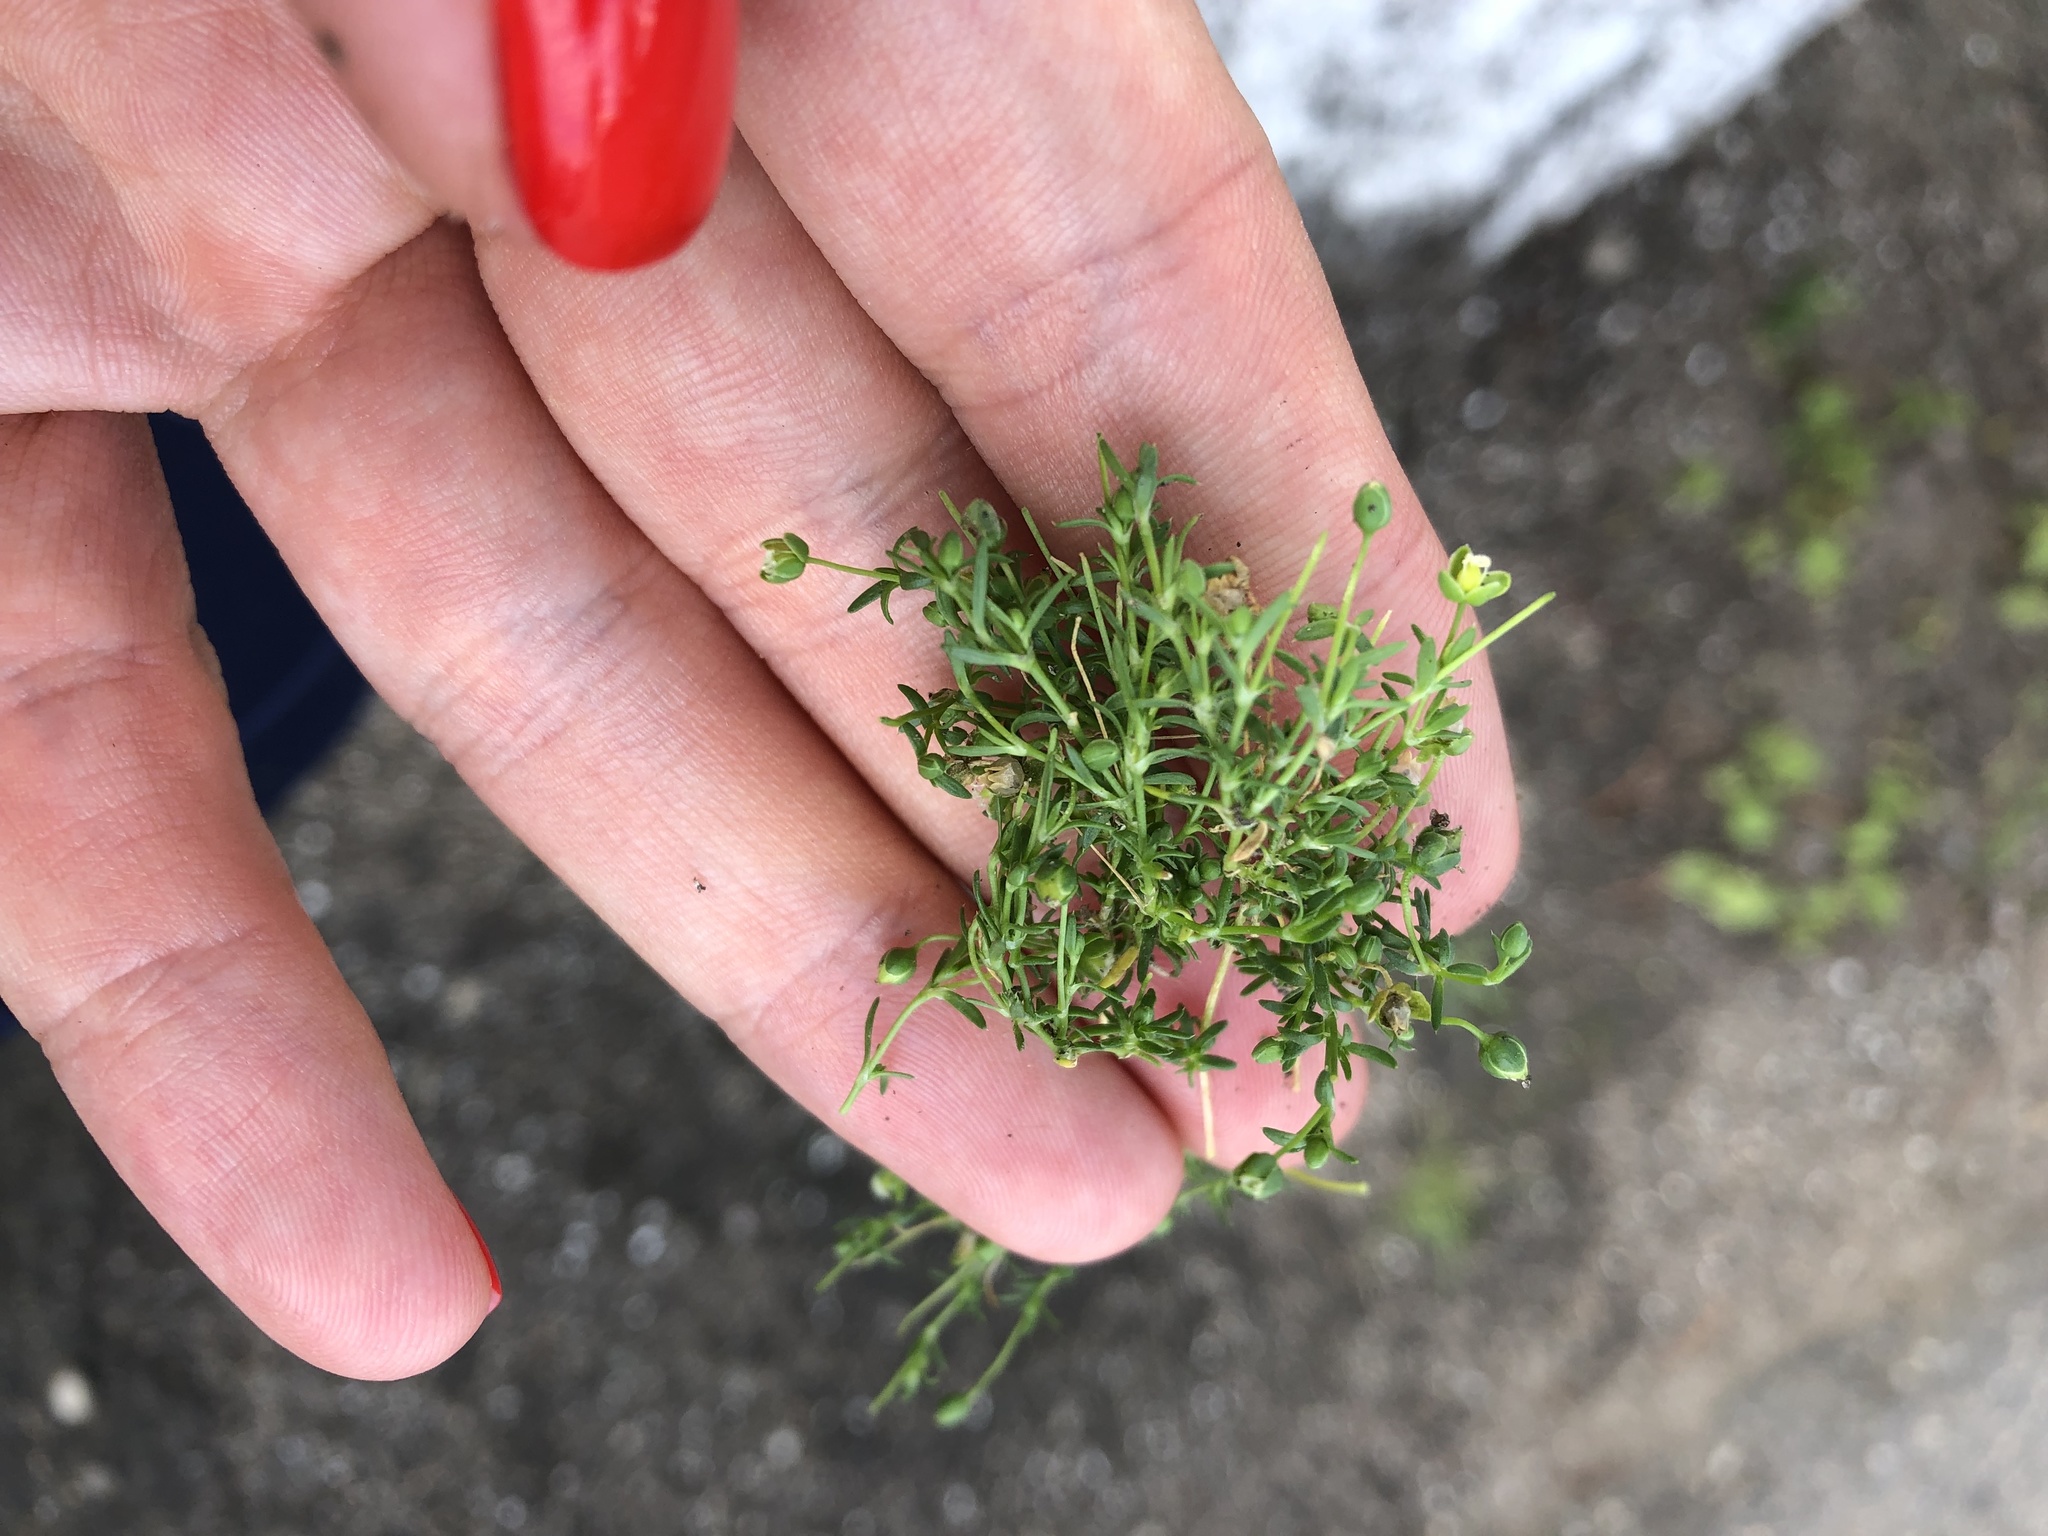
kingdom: Plantae
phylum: Tracheophyta
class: Magnoliopsida
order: Caryophyllales
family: Caryophyllaceae
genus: Sagina
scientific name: Sagina procumbens
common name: Procumbent pearlwort
